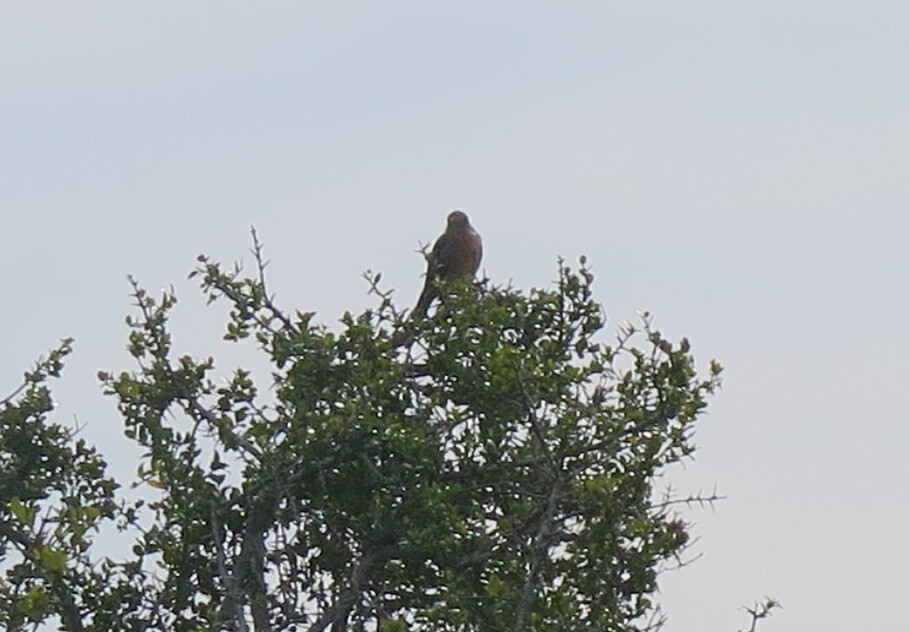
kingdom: Animalia
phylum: Chordata
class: Aves
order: Passeriformes
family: Cotingidae
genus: Phytotoma
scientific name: Phytotoma rutila
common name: White-tipped plantcutter
